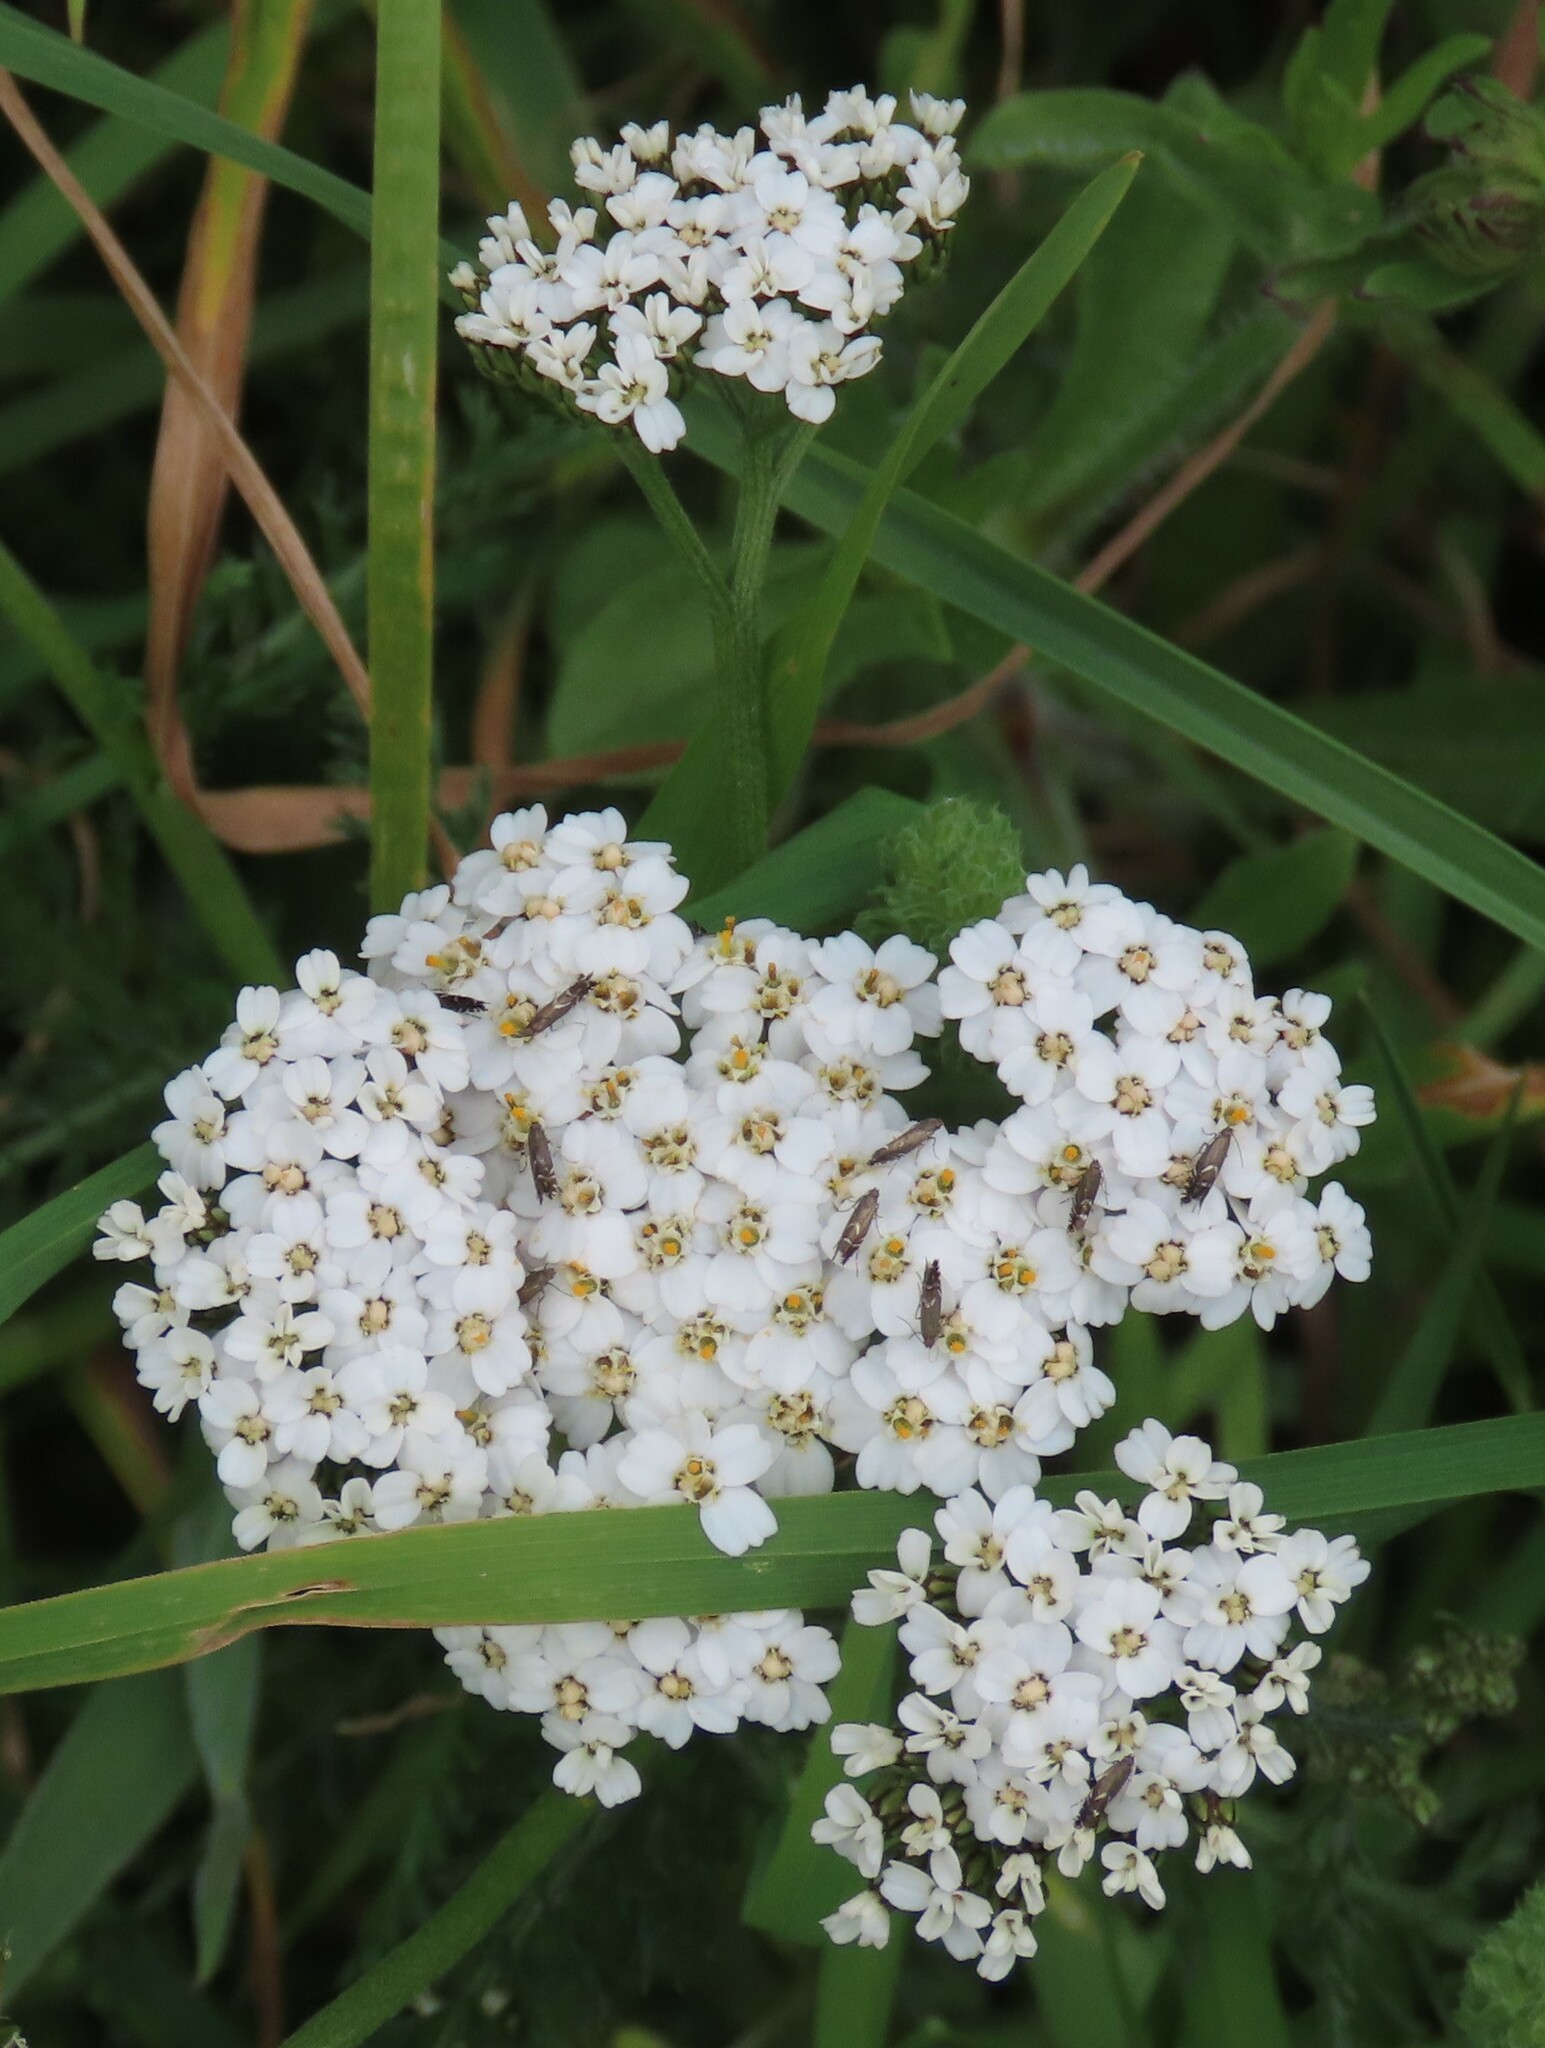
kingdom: Plantae
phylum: Tracheophyta
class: Magnoliopsida
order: Asterales
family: Asteraceae
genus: Achillea
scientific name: Achillea millefolium
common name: Yarrow
